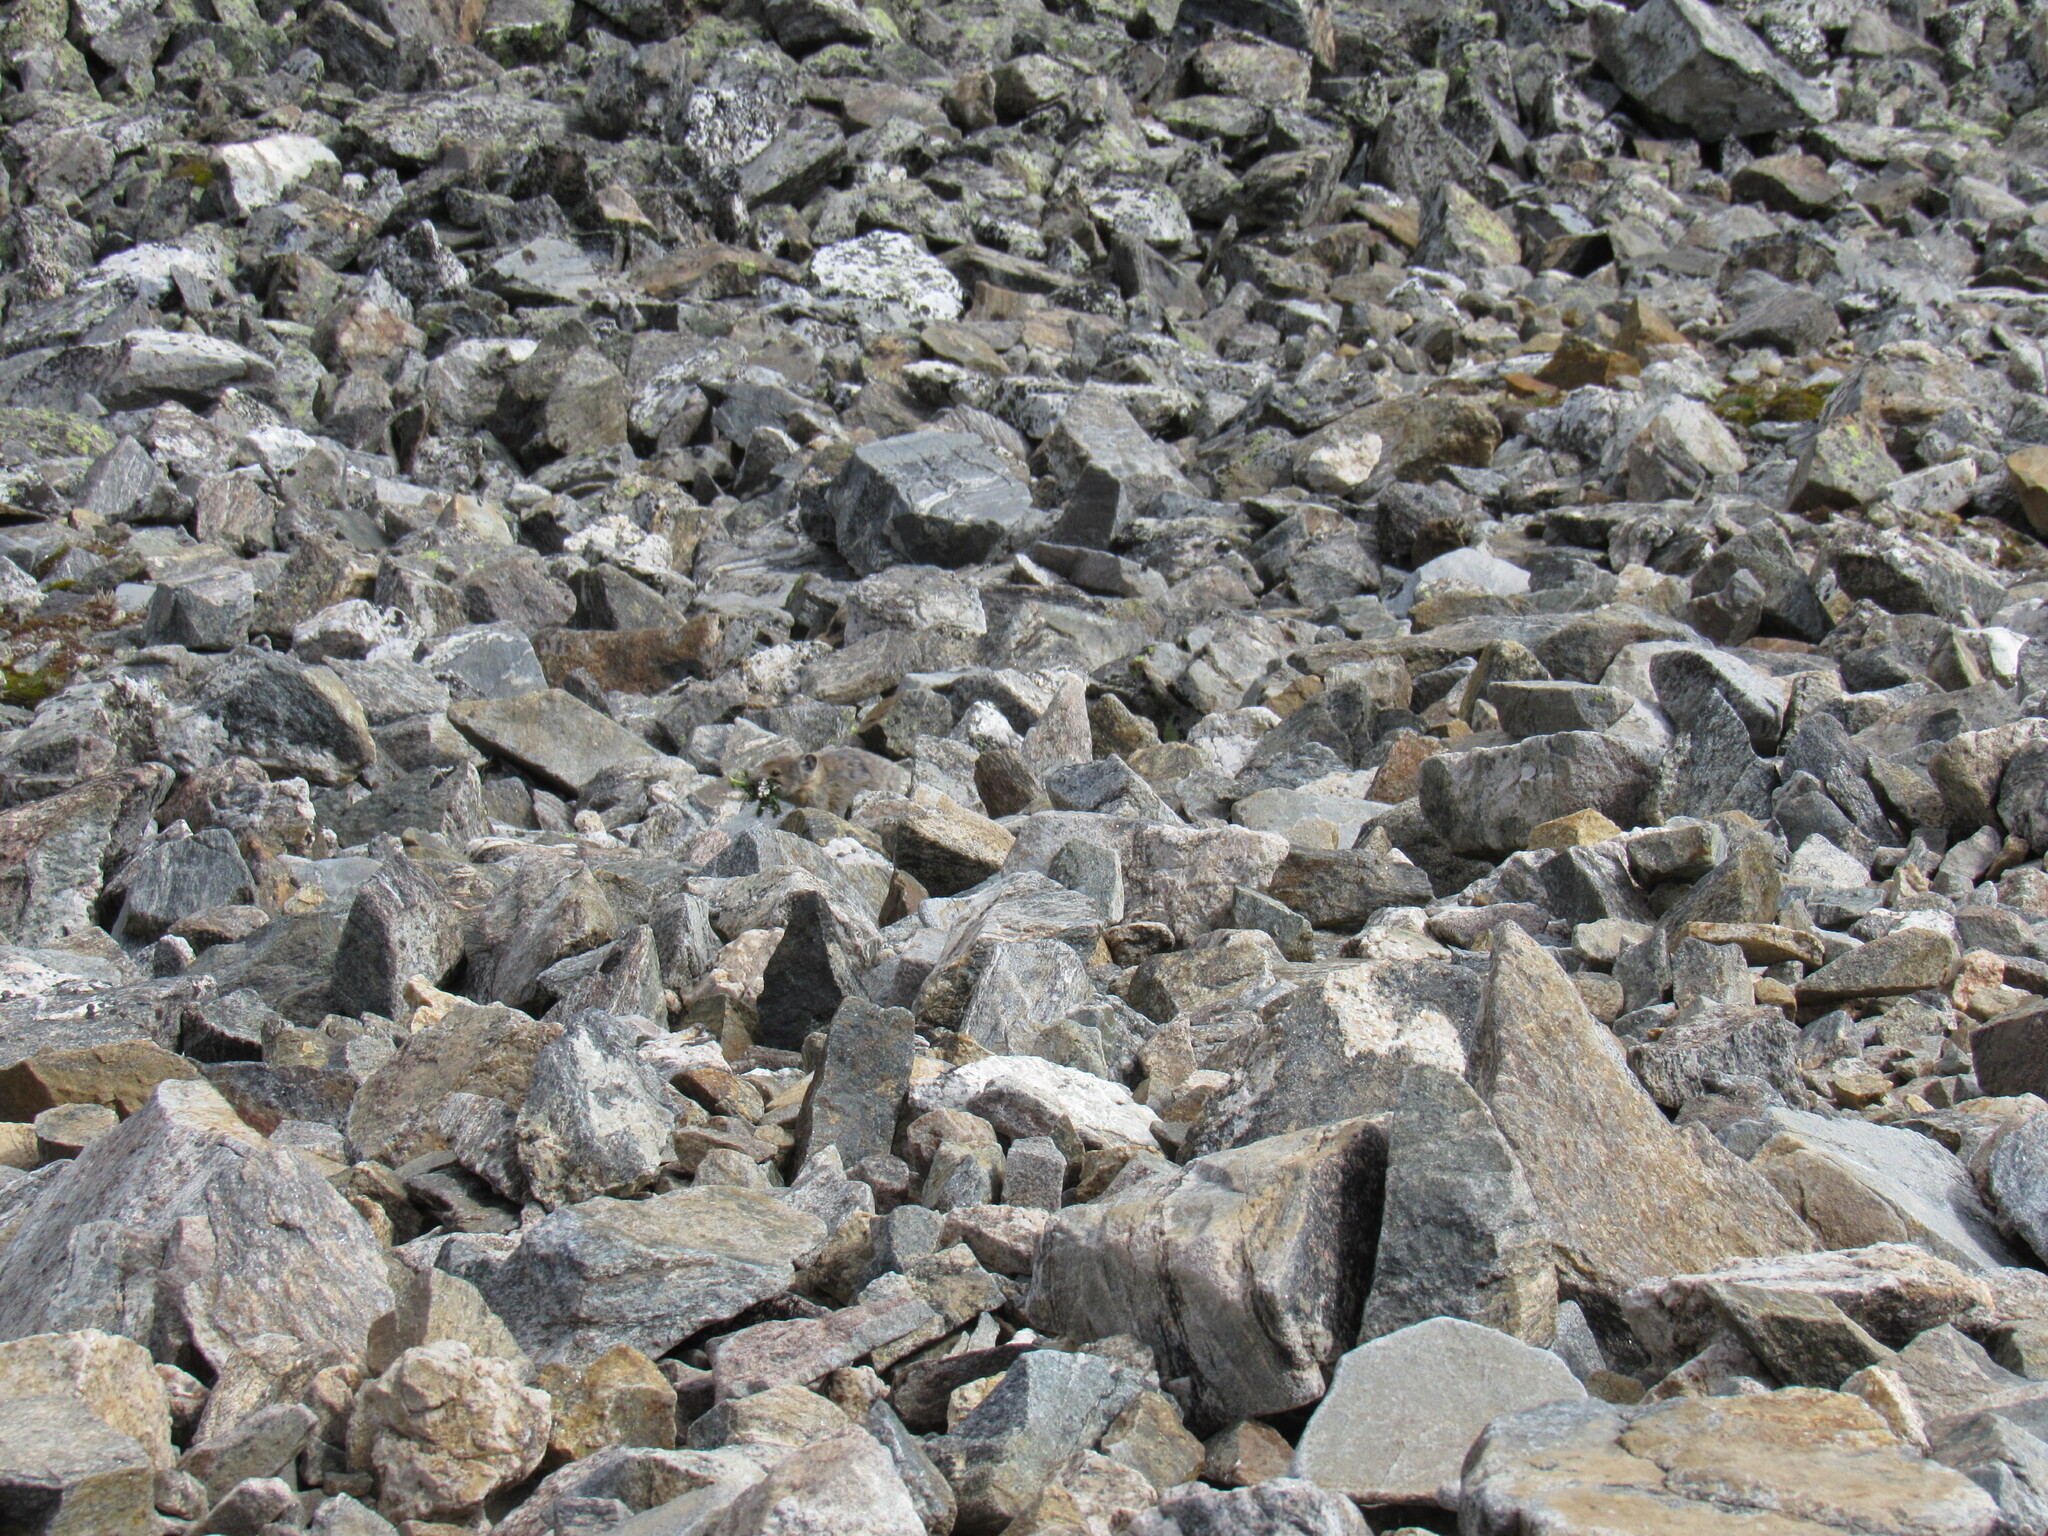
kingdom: Animalia
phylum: Chordata
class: Mammalia
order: Lagomorpha
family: Ochotonidae
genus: Ochotona
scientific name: Ochotona princeps
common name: American pika
